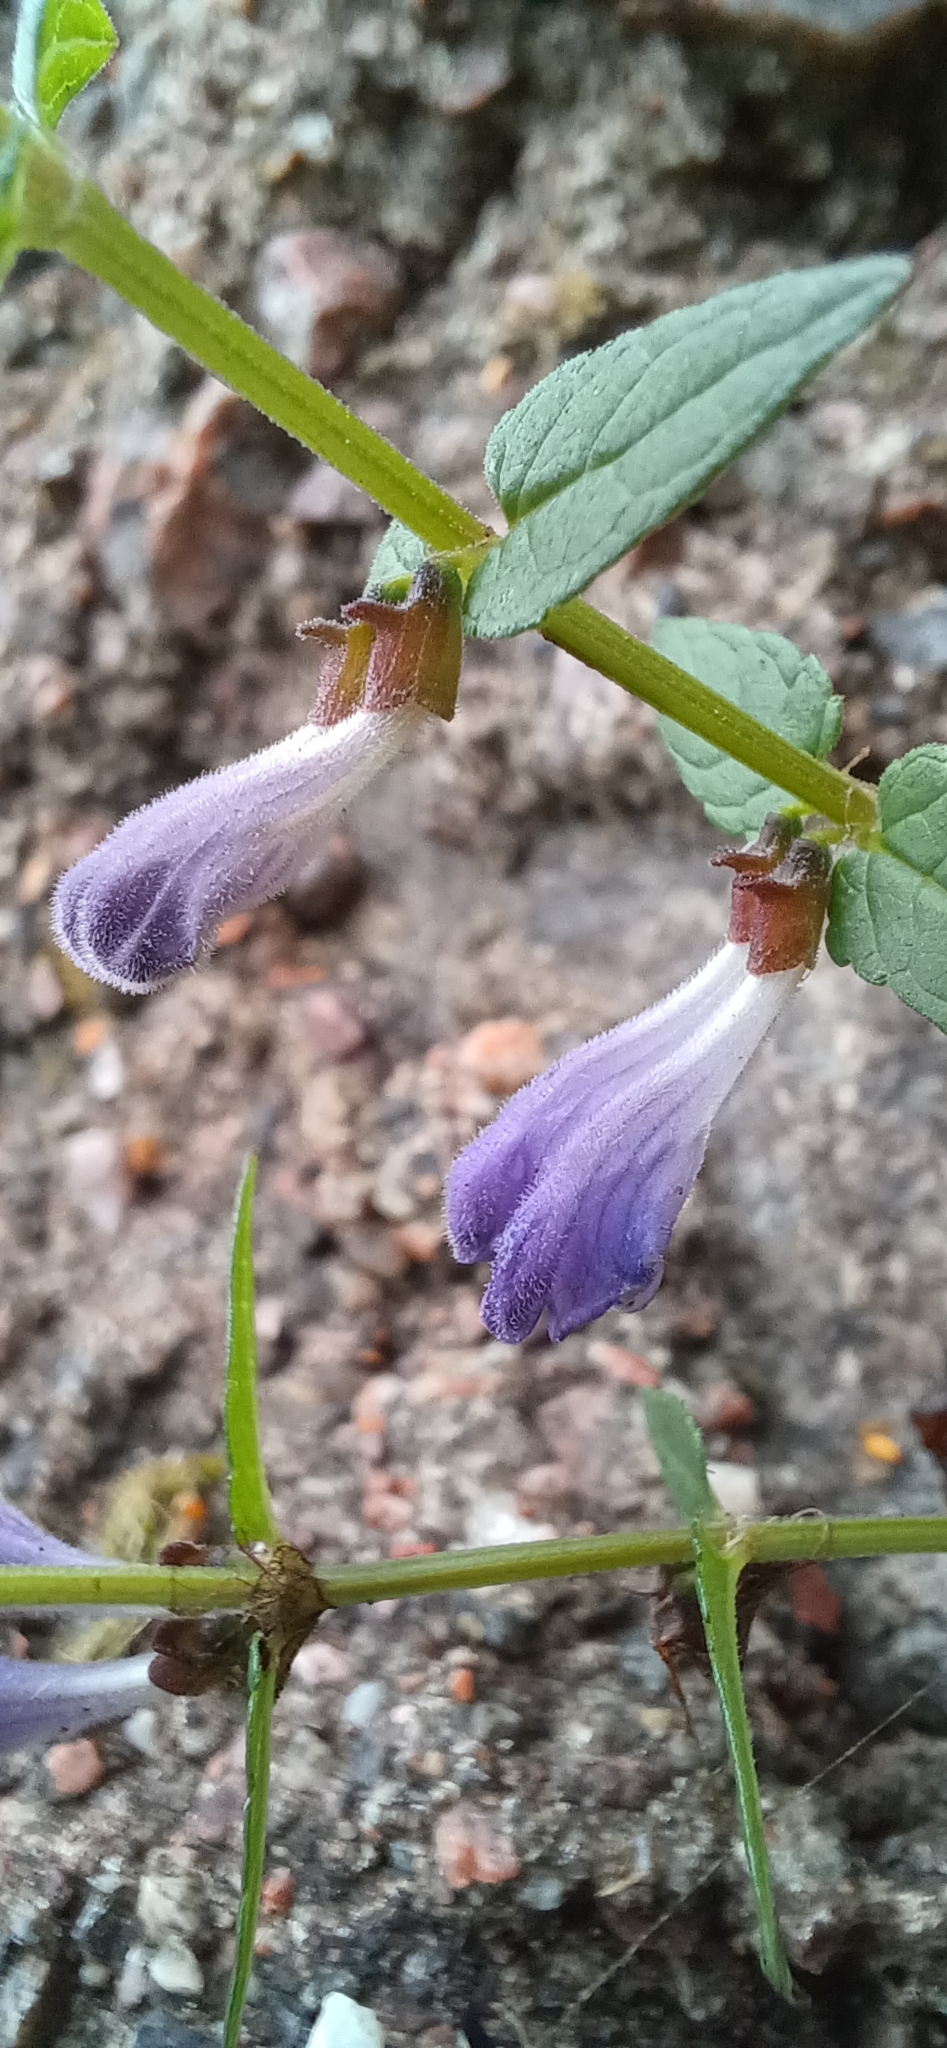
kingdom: Plantae
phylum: Tracheophyta
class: Magnoliopsida
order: Lamiales
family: Lamiaceae
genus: Scutellaria
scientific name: Scutellaria galericulata
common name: Skullcap
